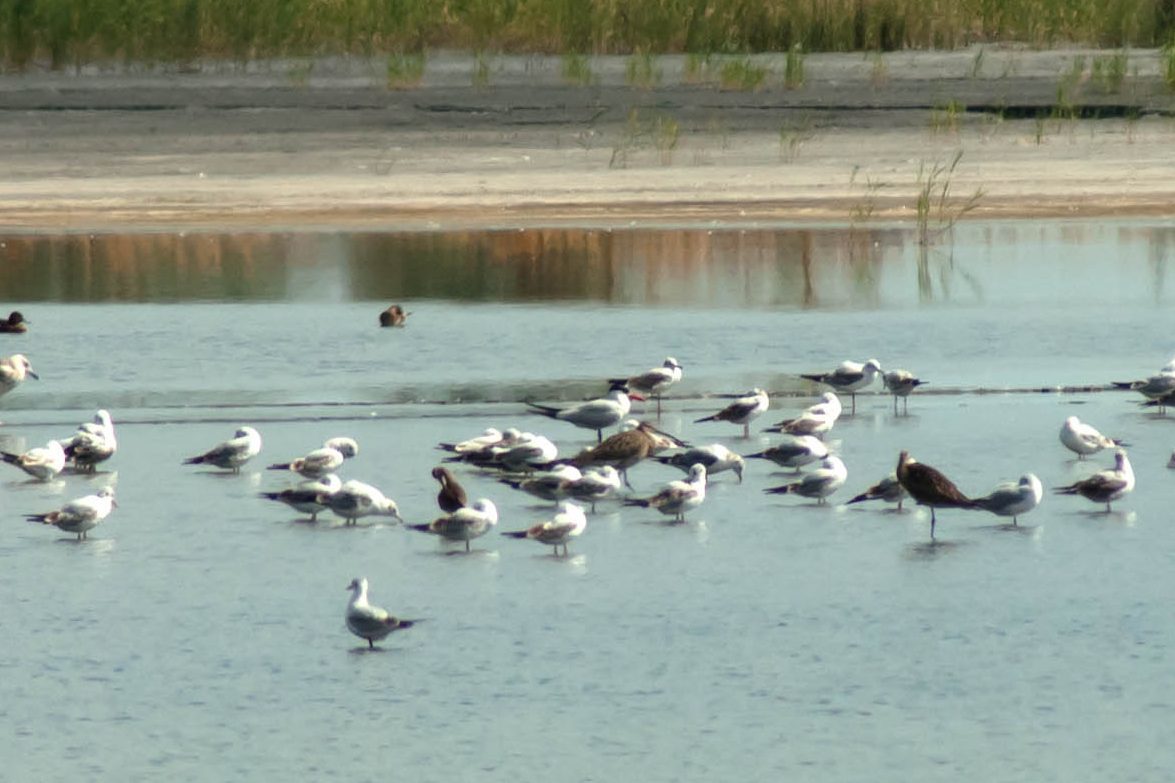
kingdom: Animalia
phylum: Chordata
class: Aves
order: Charadriiformes
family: Laridae
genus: Hydroprogne
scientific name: Hydroprogne caspia
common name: Caspian tern
